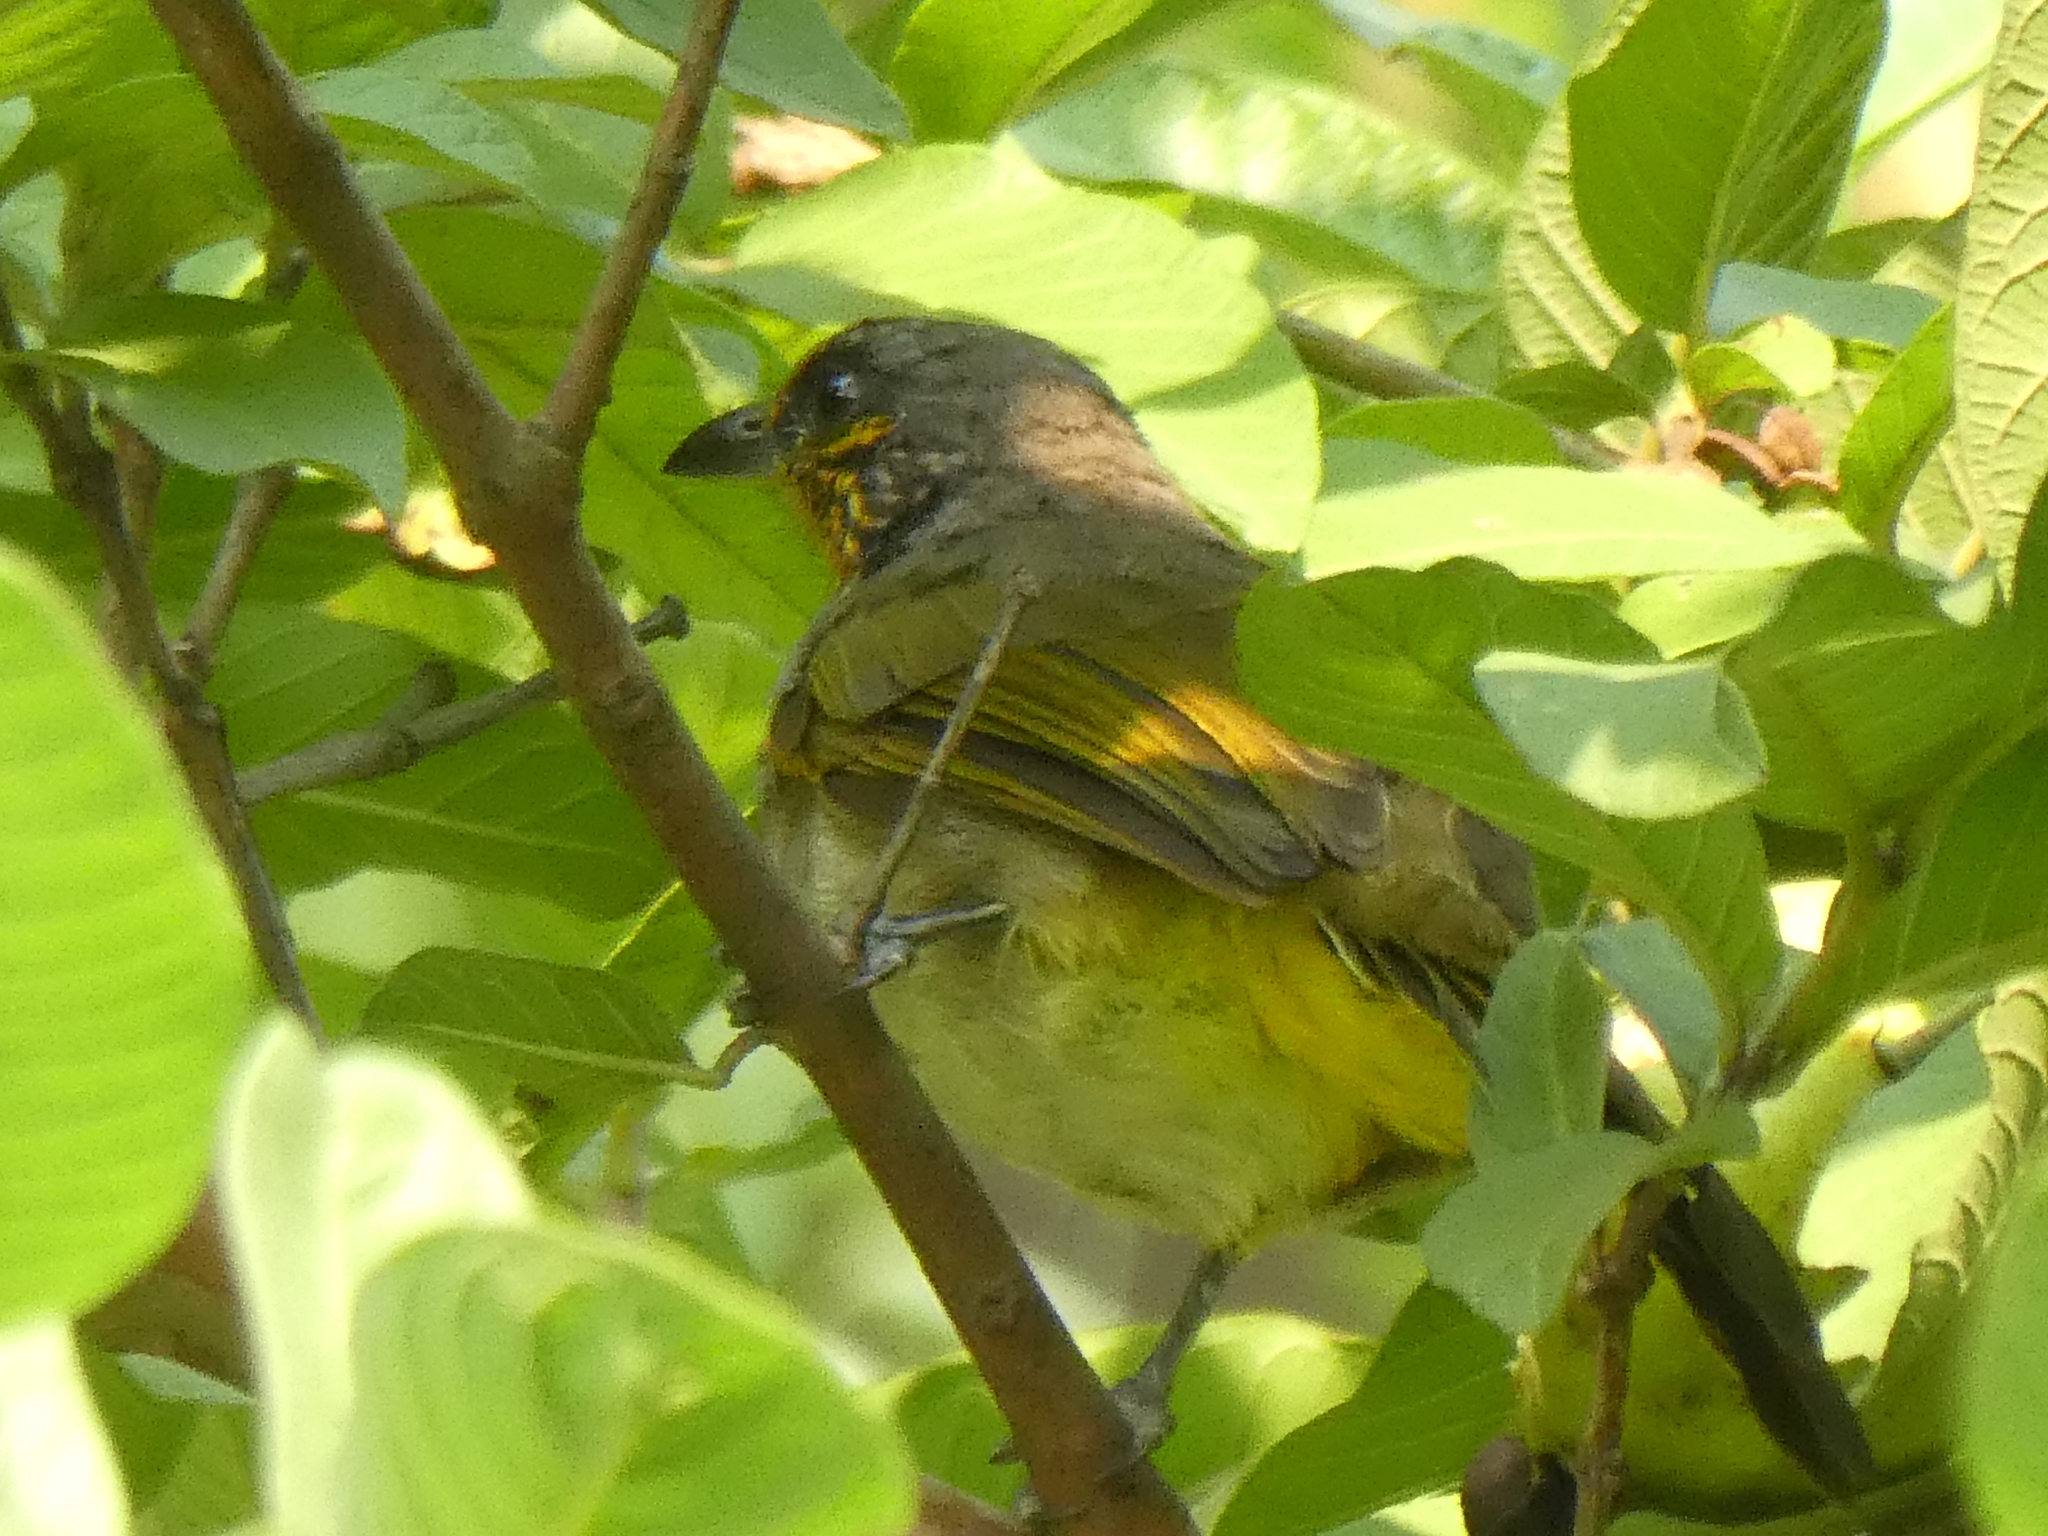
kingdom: Animalia
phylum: Chordata
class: Aves
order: Passeriformes
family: Pycnonotidae
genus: Pycnonotus
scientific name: Pycnonotus finlaysoni
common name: Stripe-throated bulbul
